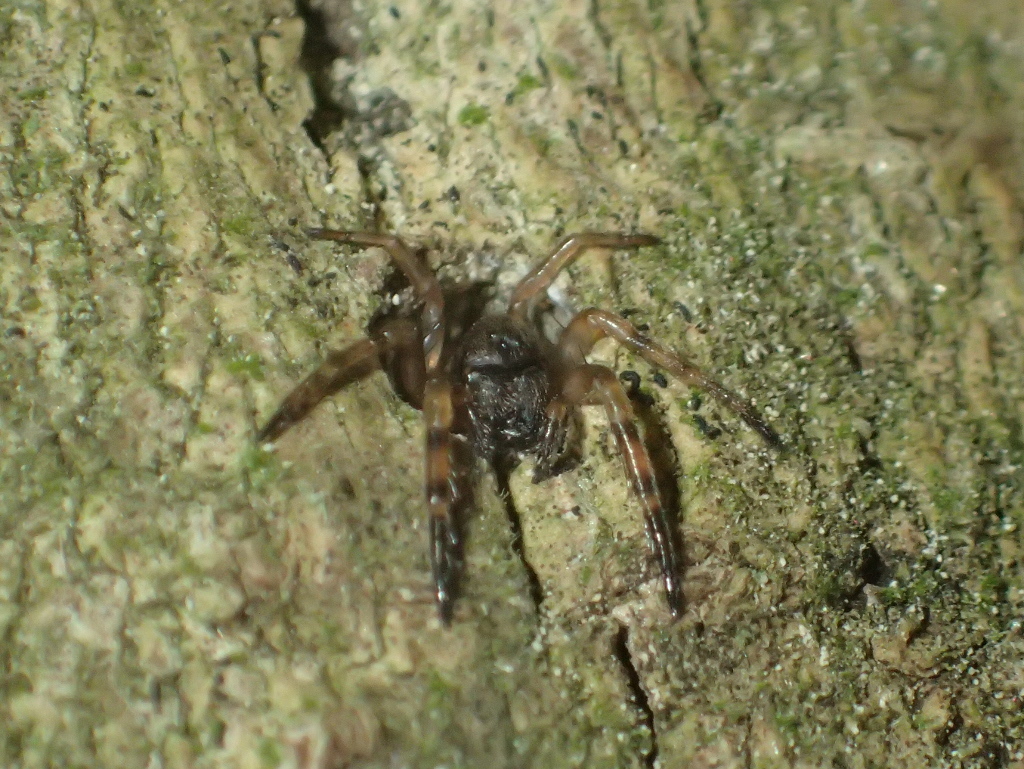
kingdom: Animalia
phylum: Arthropoda
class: Arachnida
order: Araneae
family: Cycloctenidae
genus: Plectophanes
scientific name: Plectophanes
